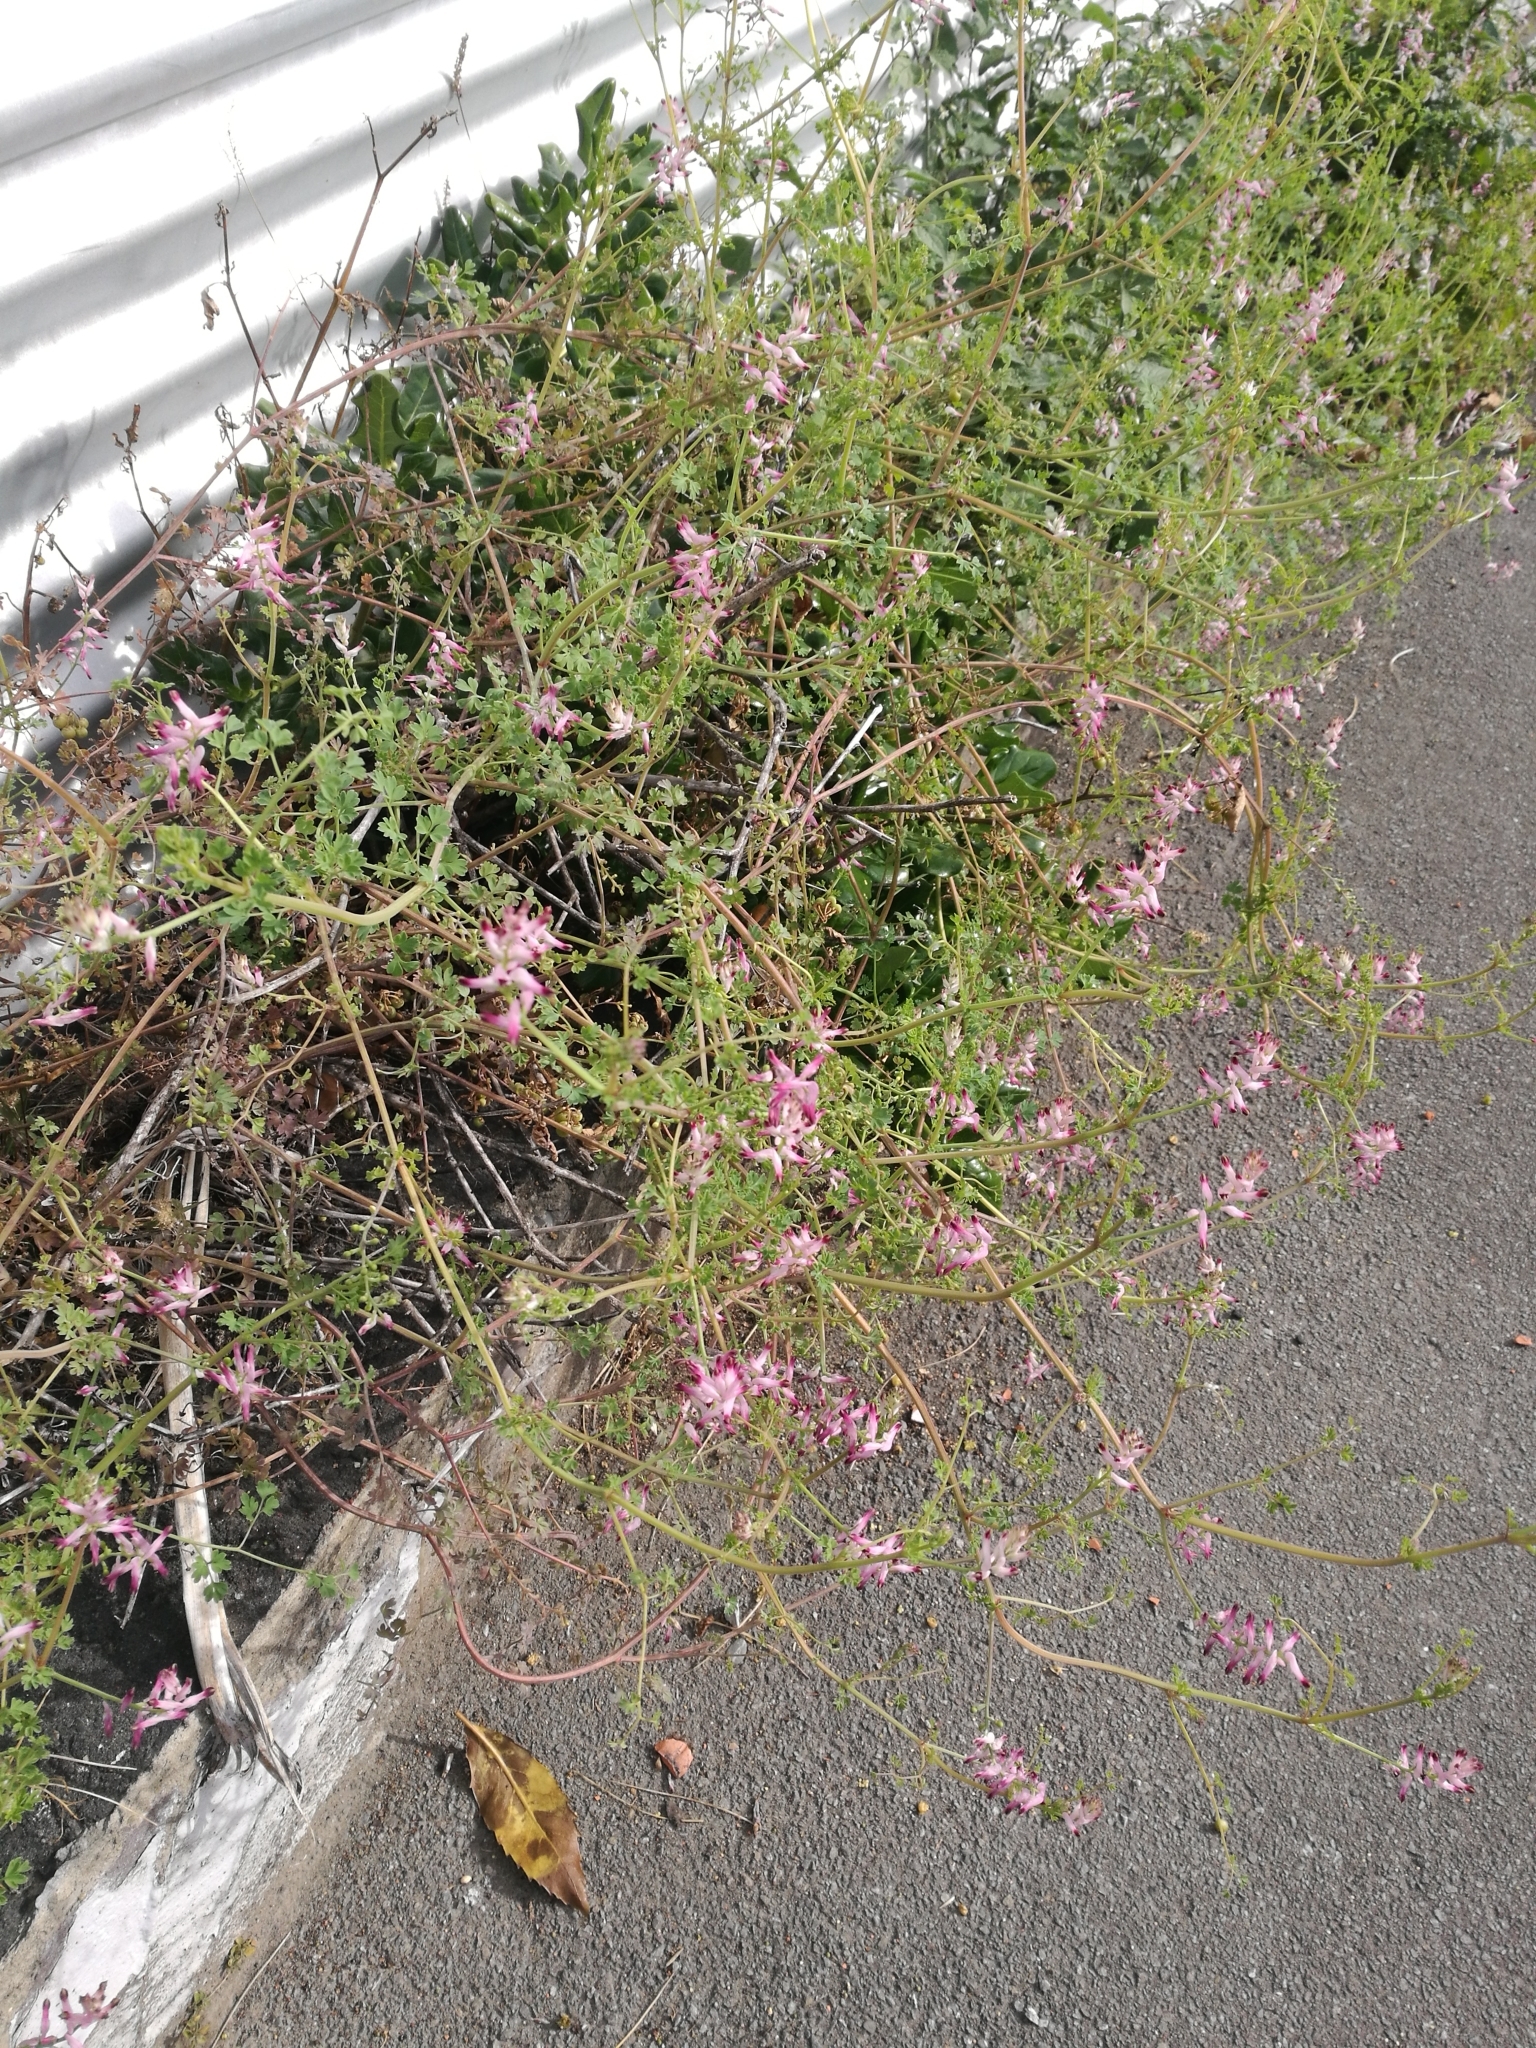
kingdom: Plantae
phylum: Tracheophyta
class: Magnoliopsida
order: Ranunculales
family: Papaveraceae
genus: Fumaria
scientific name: Fumaria muralis
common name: Common ramping-fumitory
